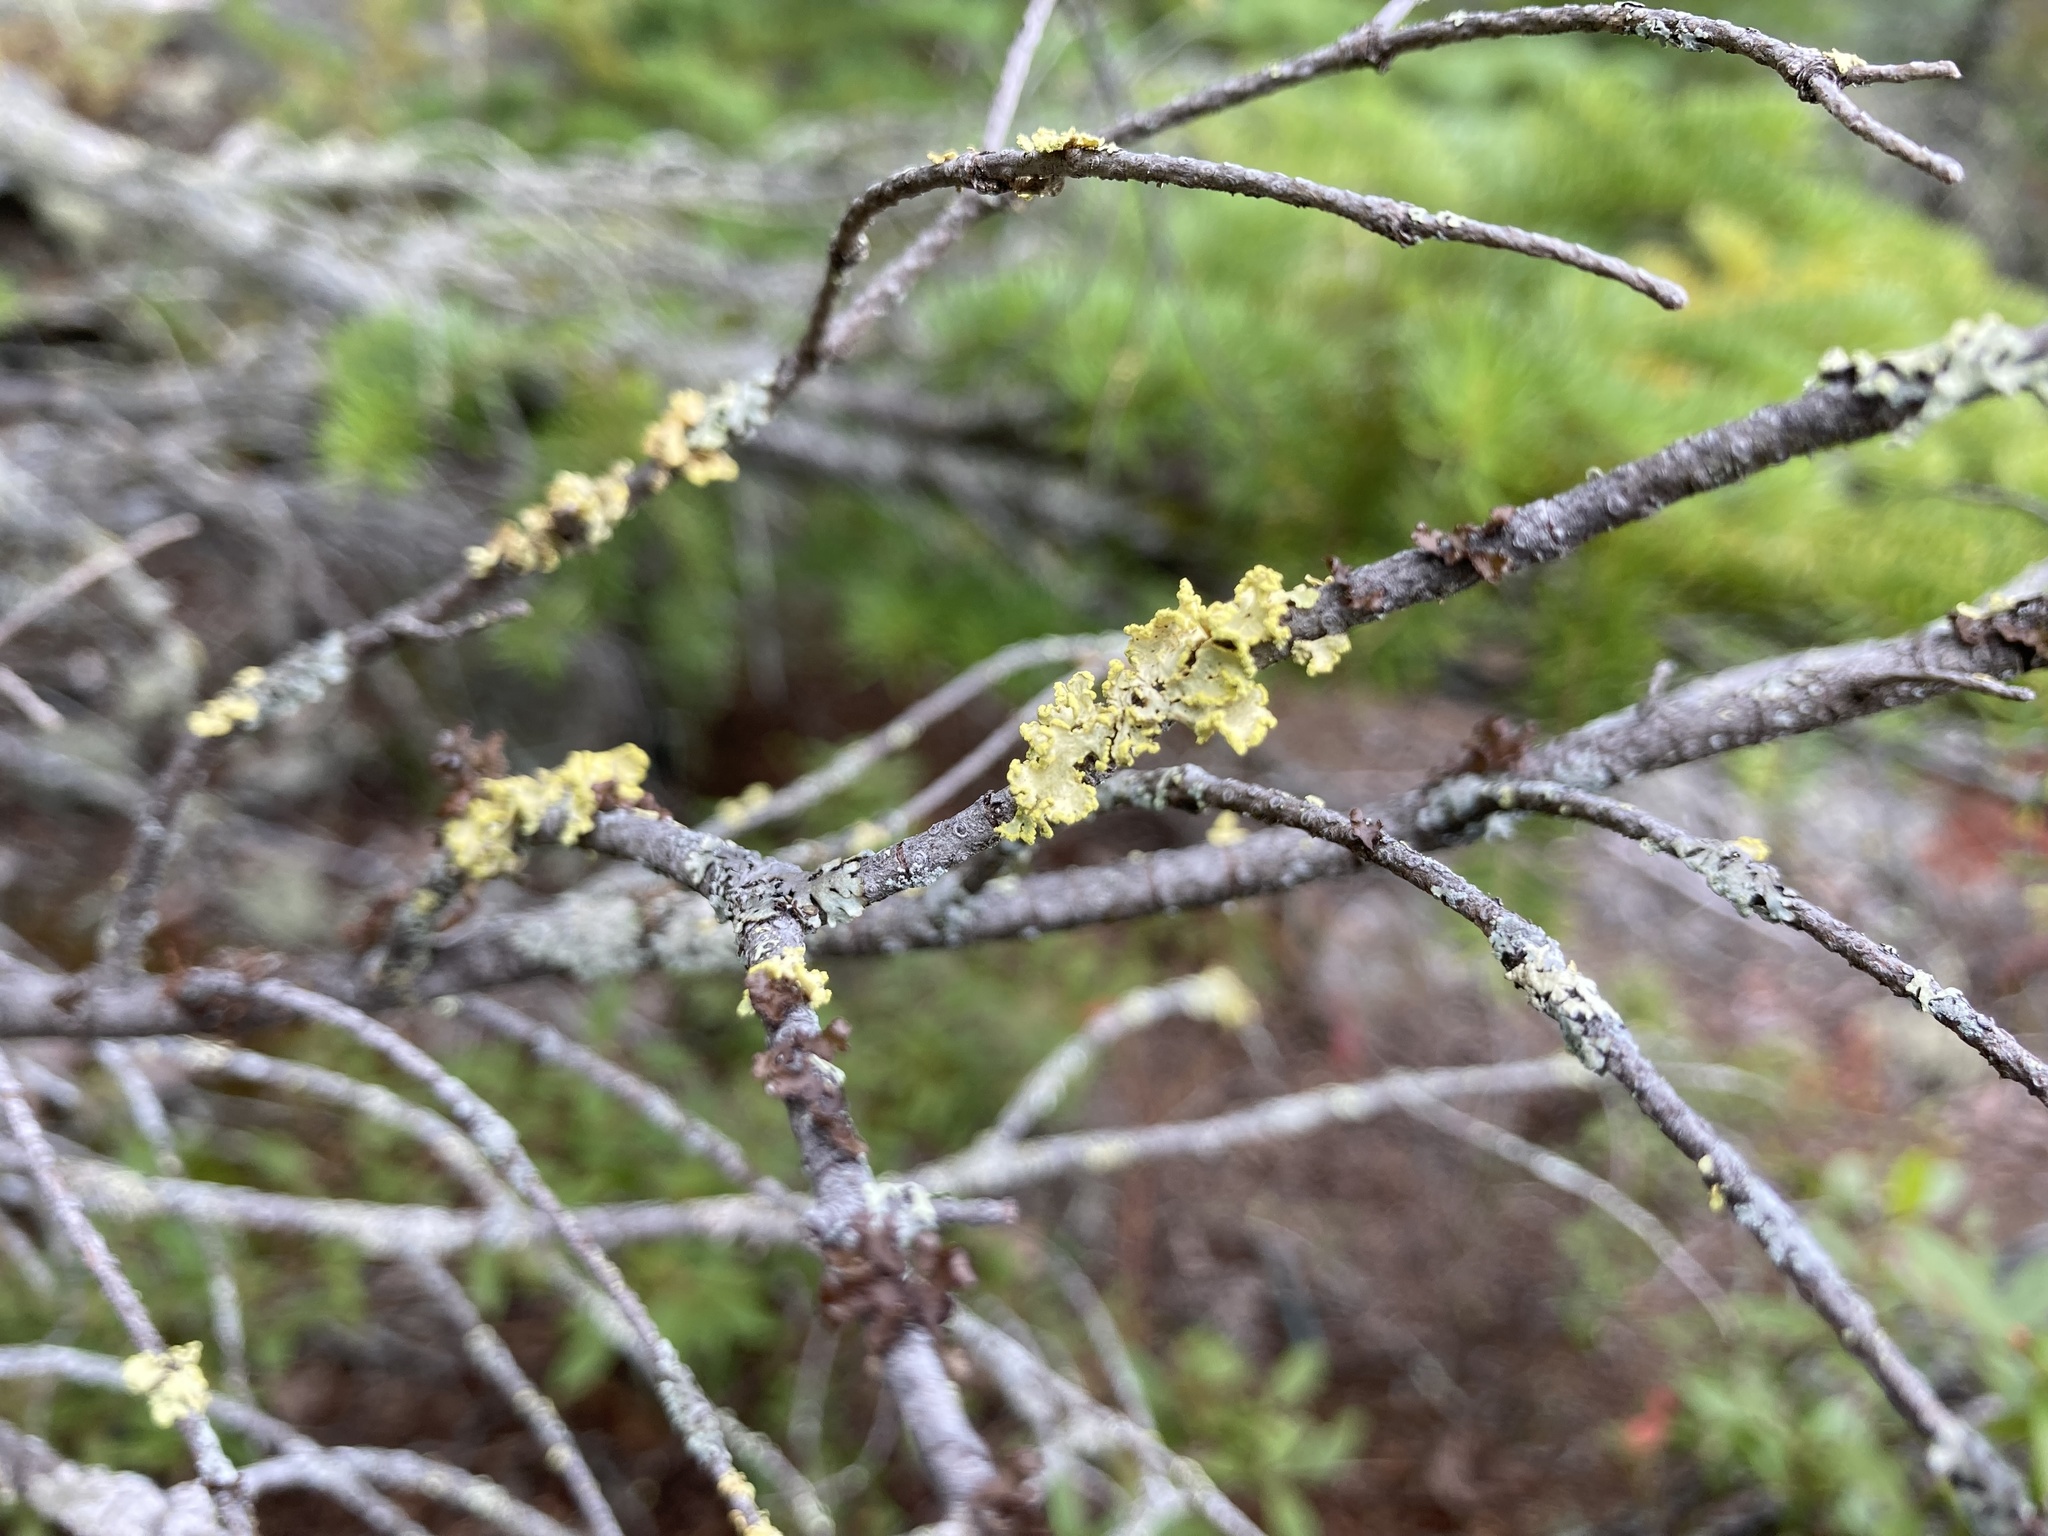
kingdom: Fungi
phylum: Ascomycota
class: Lecanoromycetes
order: Lecanorales
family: Parmeliaceae
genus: Vulpicida
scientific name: Vulpicida pinastri
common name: Powdered sunshine lichen
